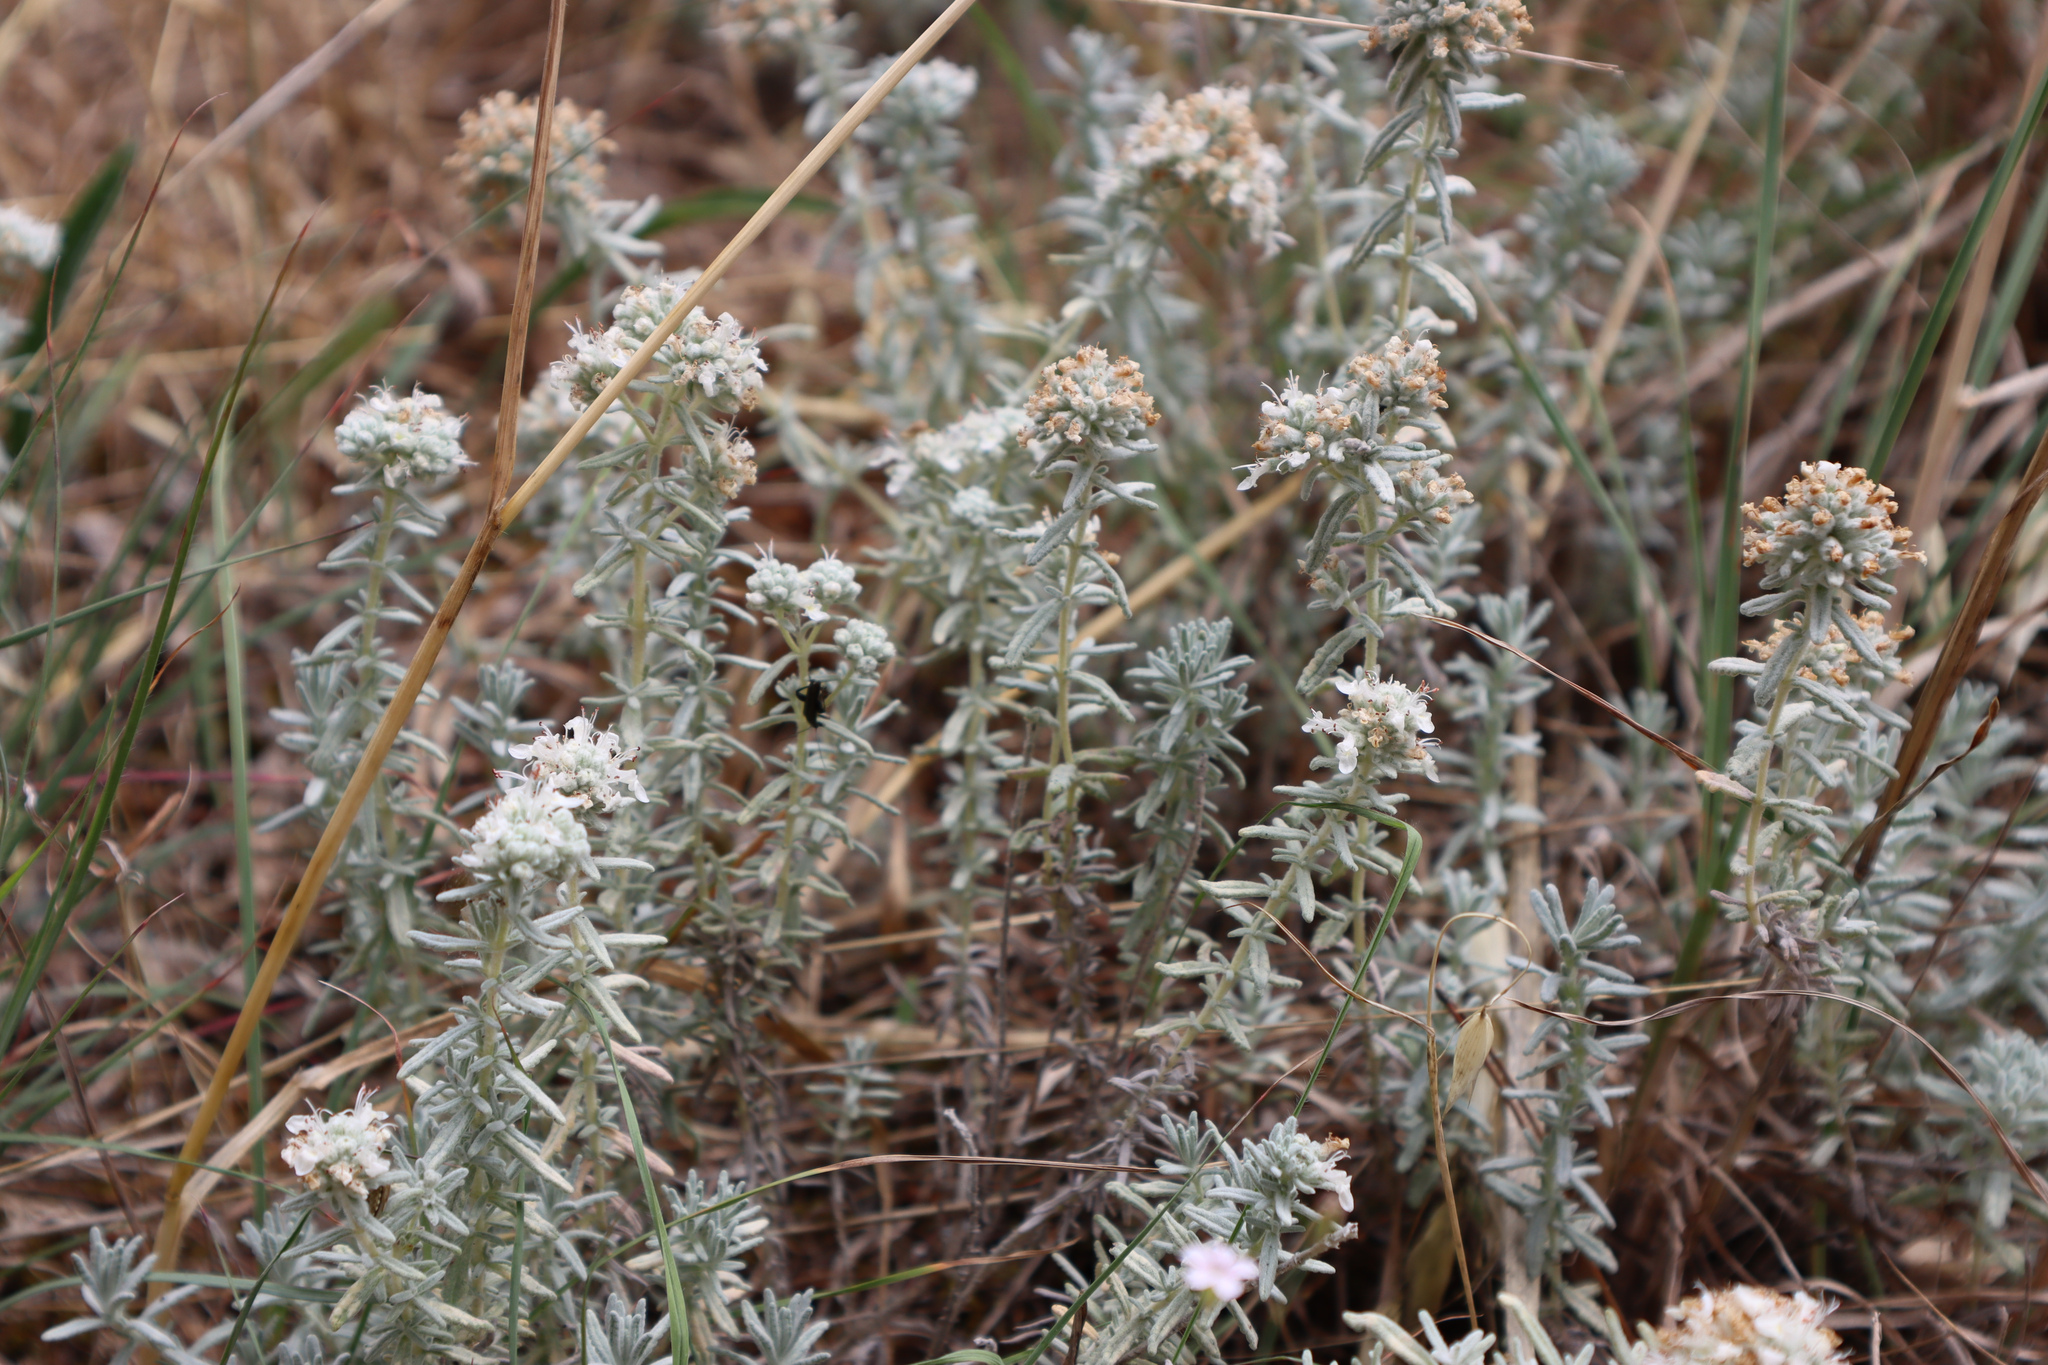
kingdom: Plantae
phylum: Tracheophyta
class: Magnoliopsida
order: Lamiales
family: Lamiaceae
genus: Teucrium
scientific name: Teucrium capitatum
